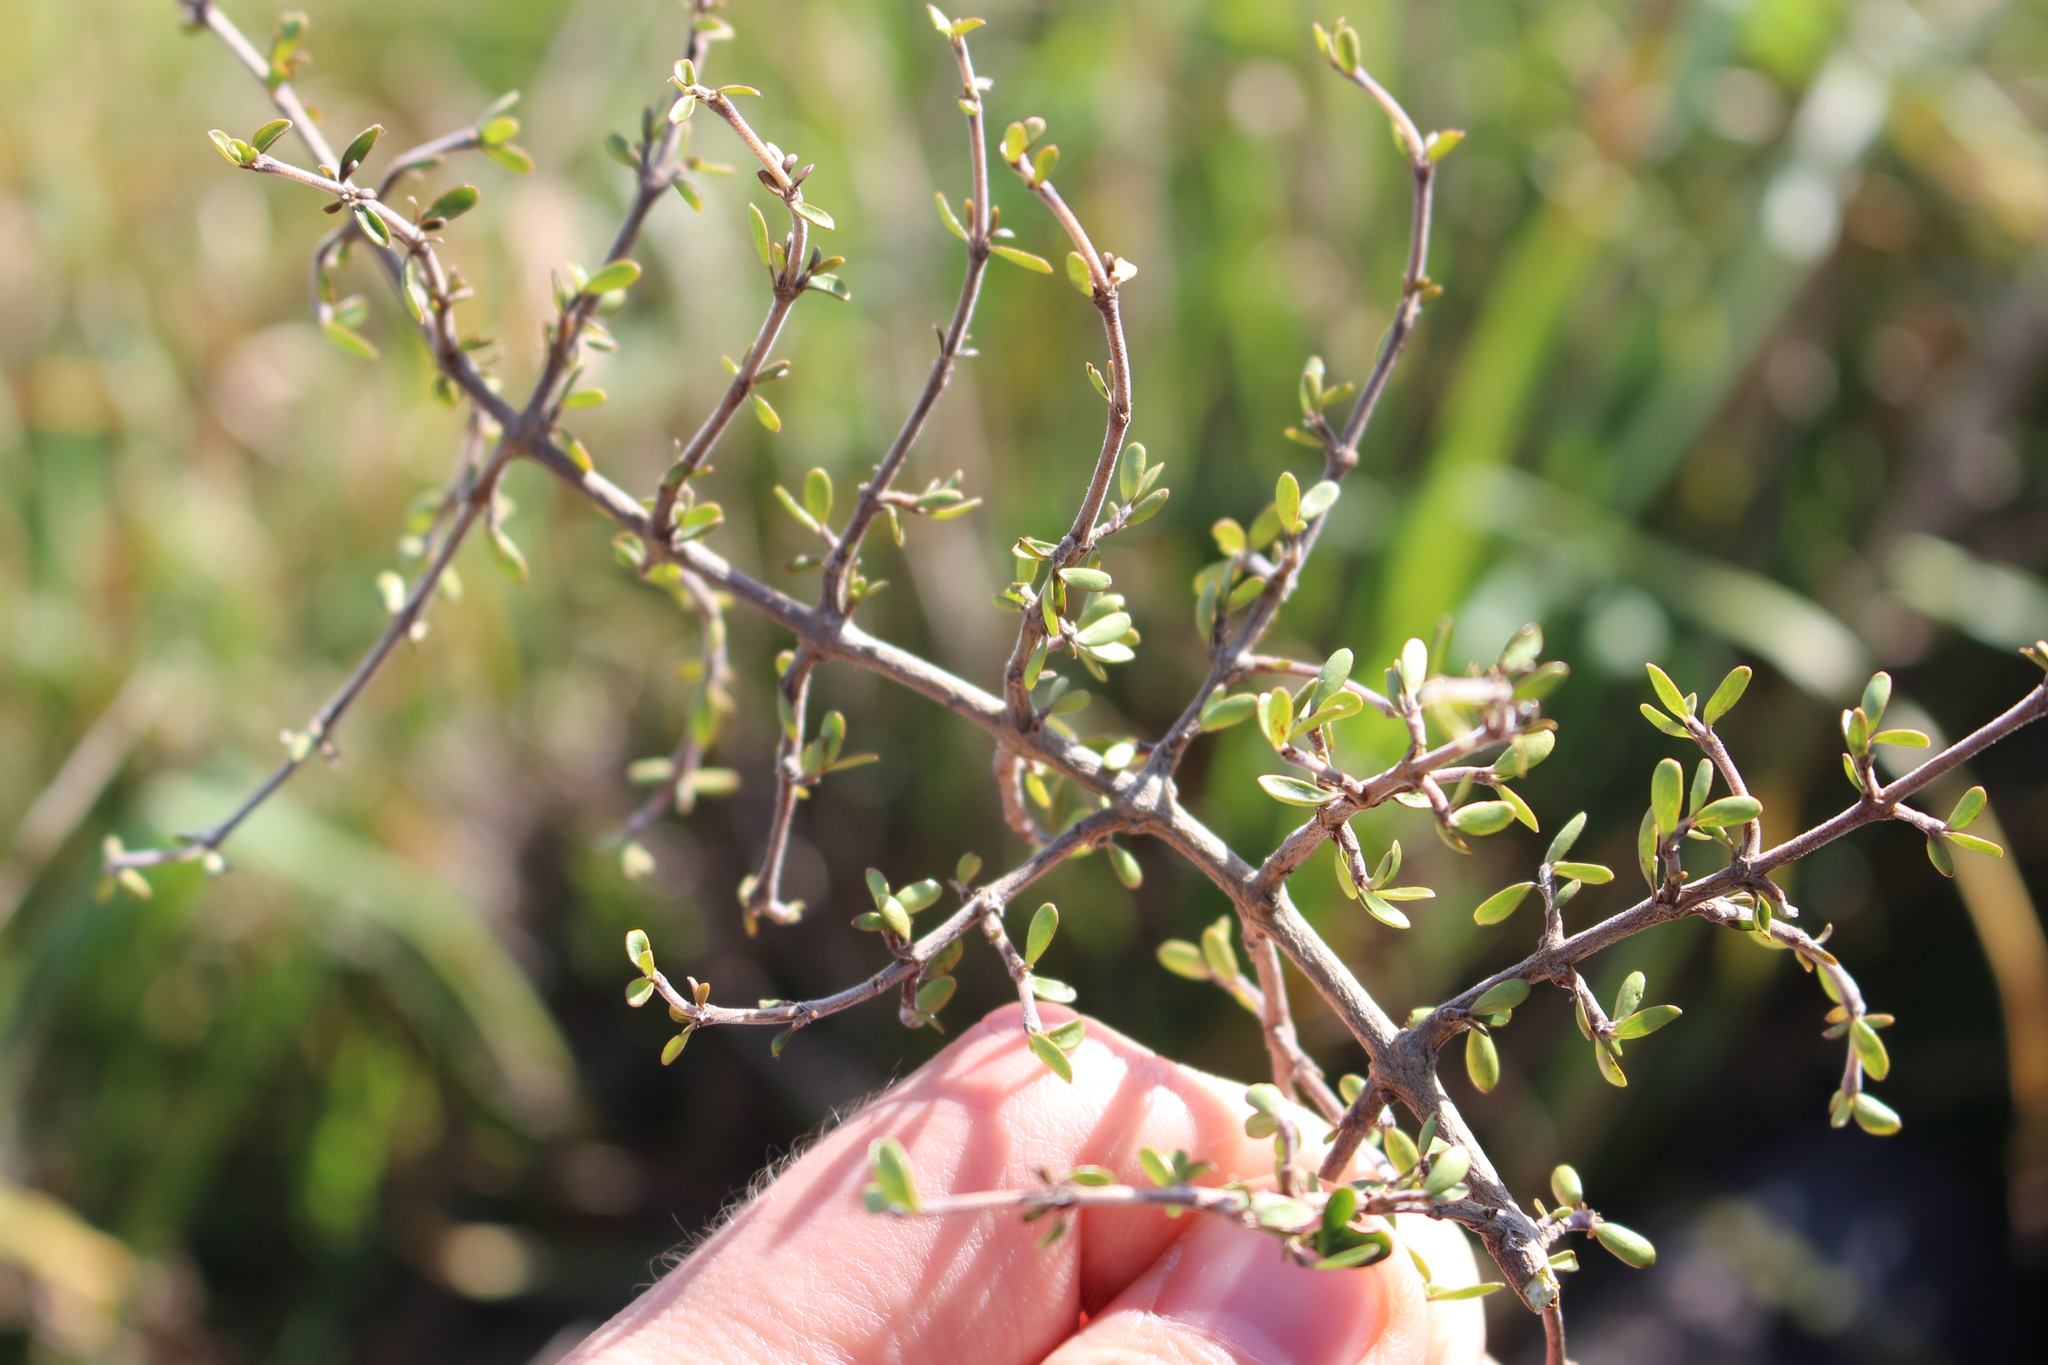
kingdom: Plantae
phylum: Tracheophyta
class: Magnoliopsida
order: Gentianales
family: Rubiaceae
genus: Coprosma
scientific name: Coprosma dumosa
